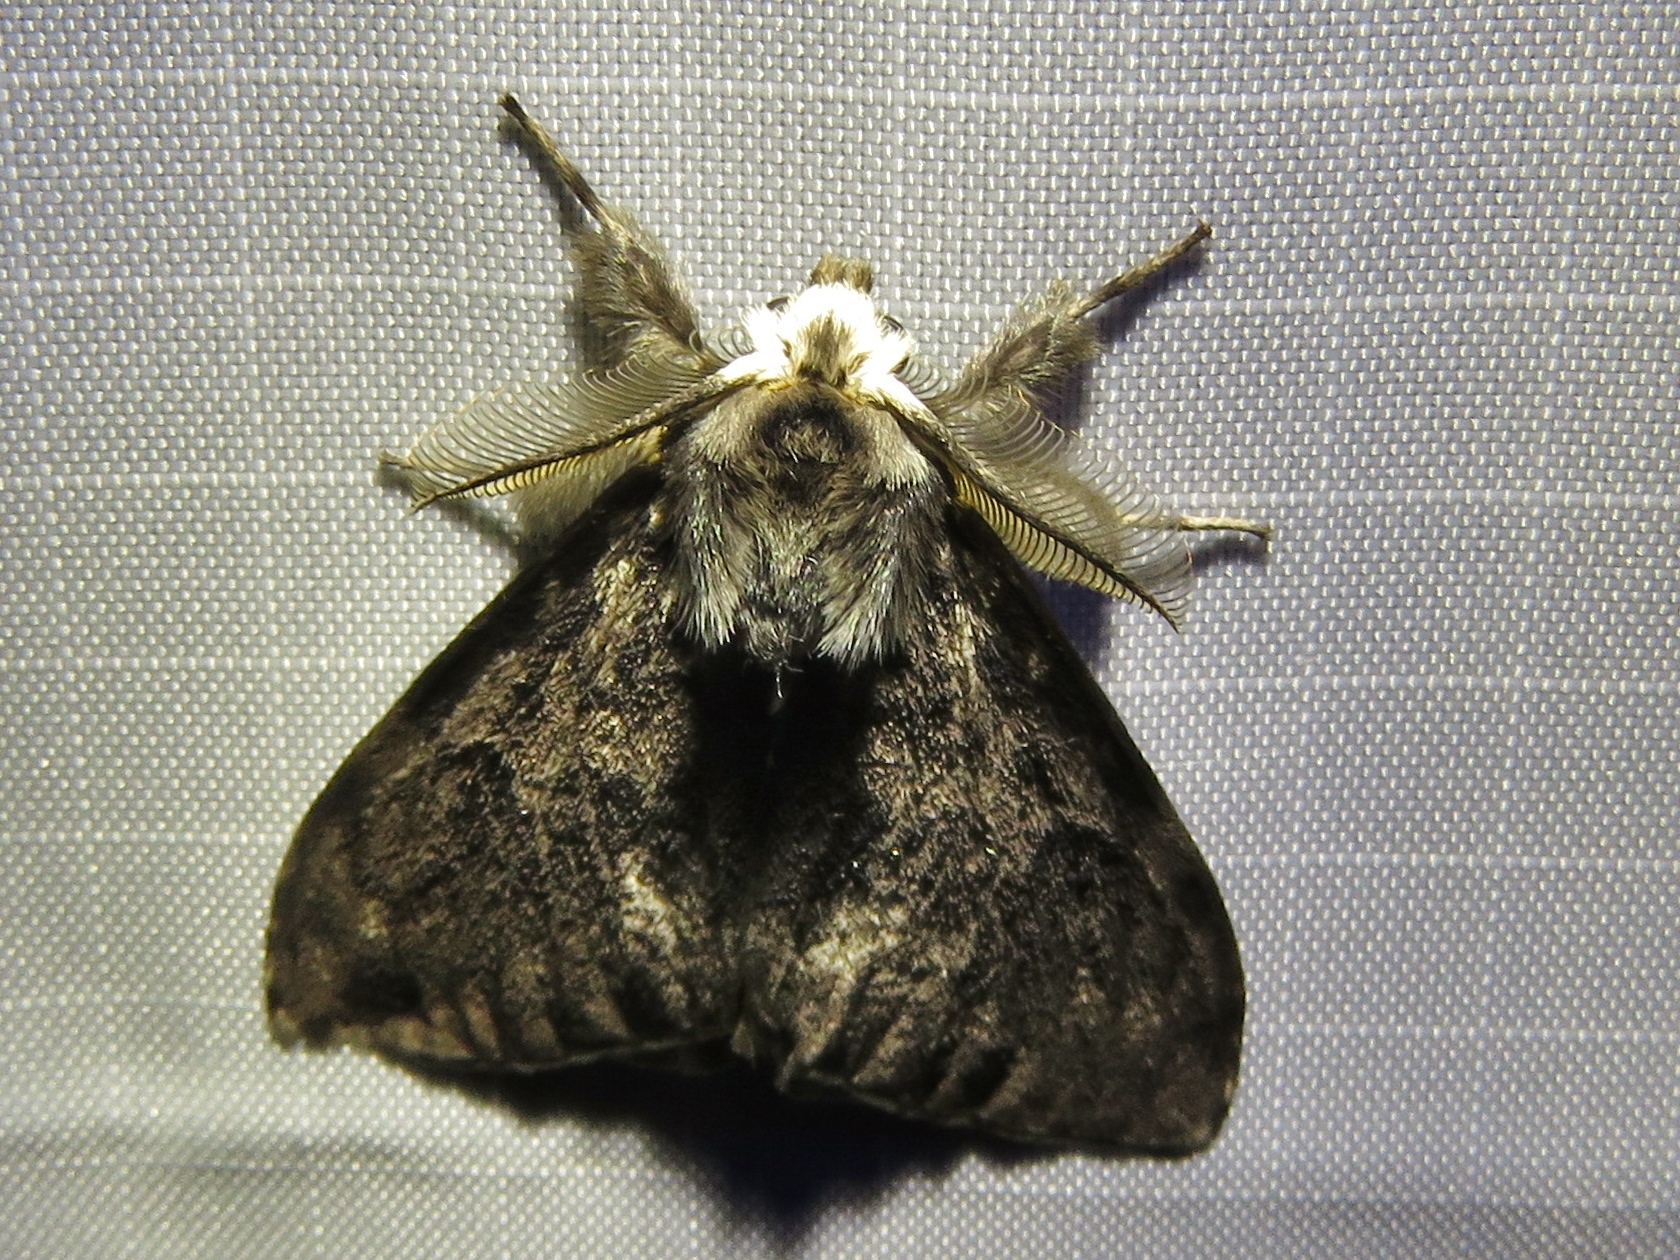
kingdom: Animalia
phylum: Arthropoda
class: Insecta
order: Lepidoptera
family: Erebidae
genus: Lymantria
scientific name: Lymantria monacha
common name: Black arches
